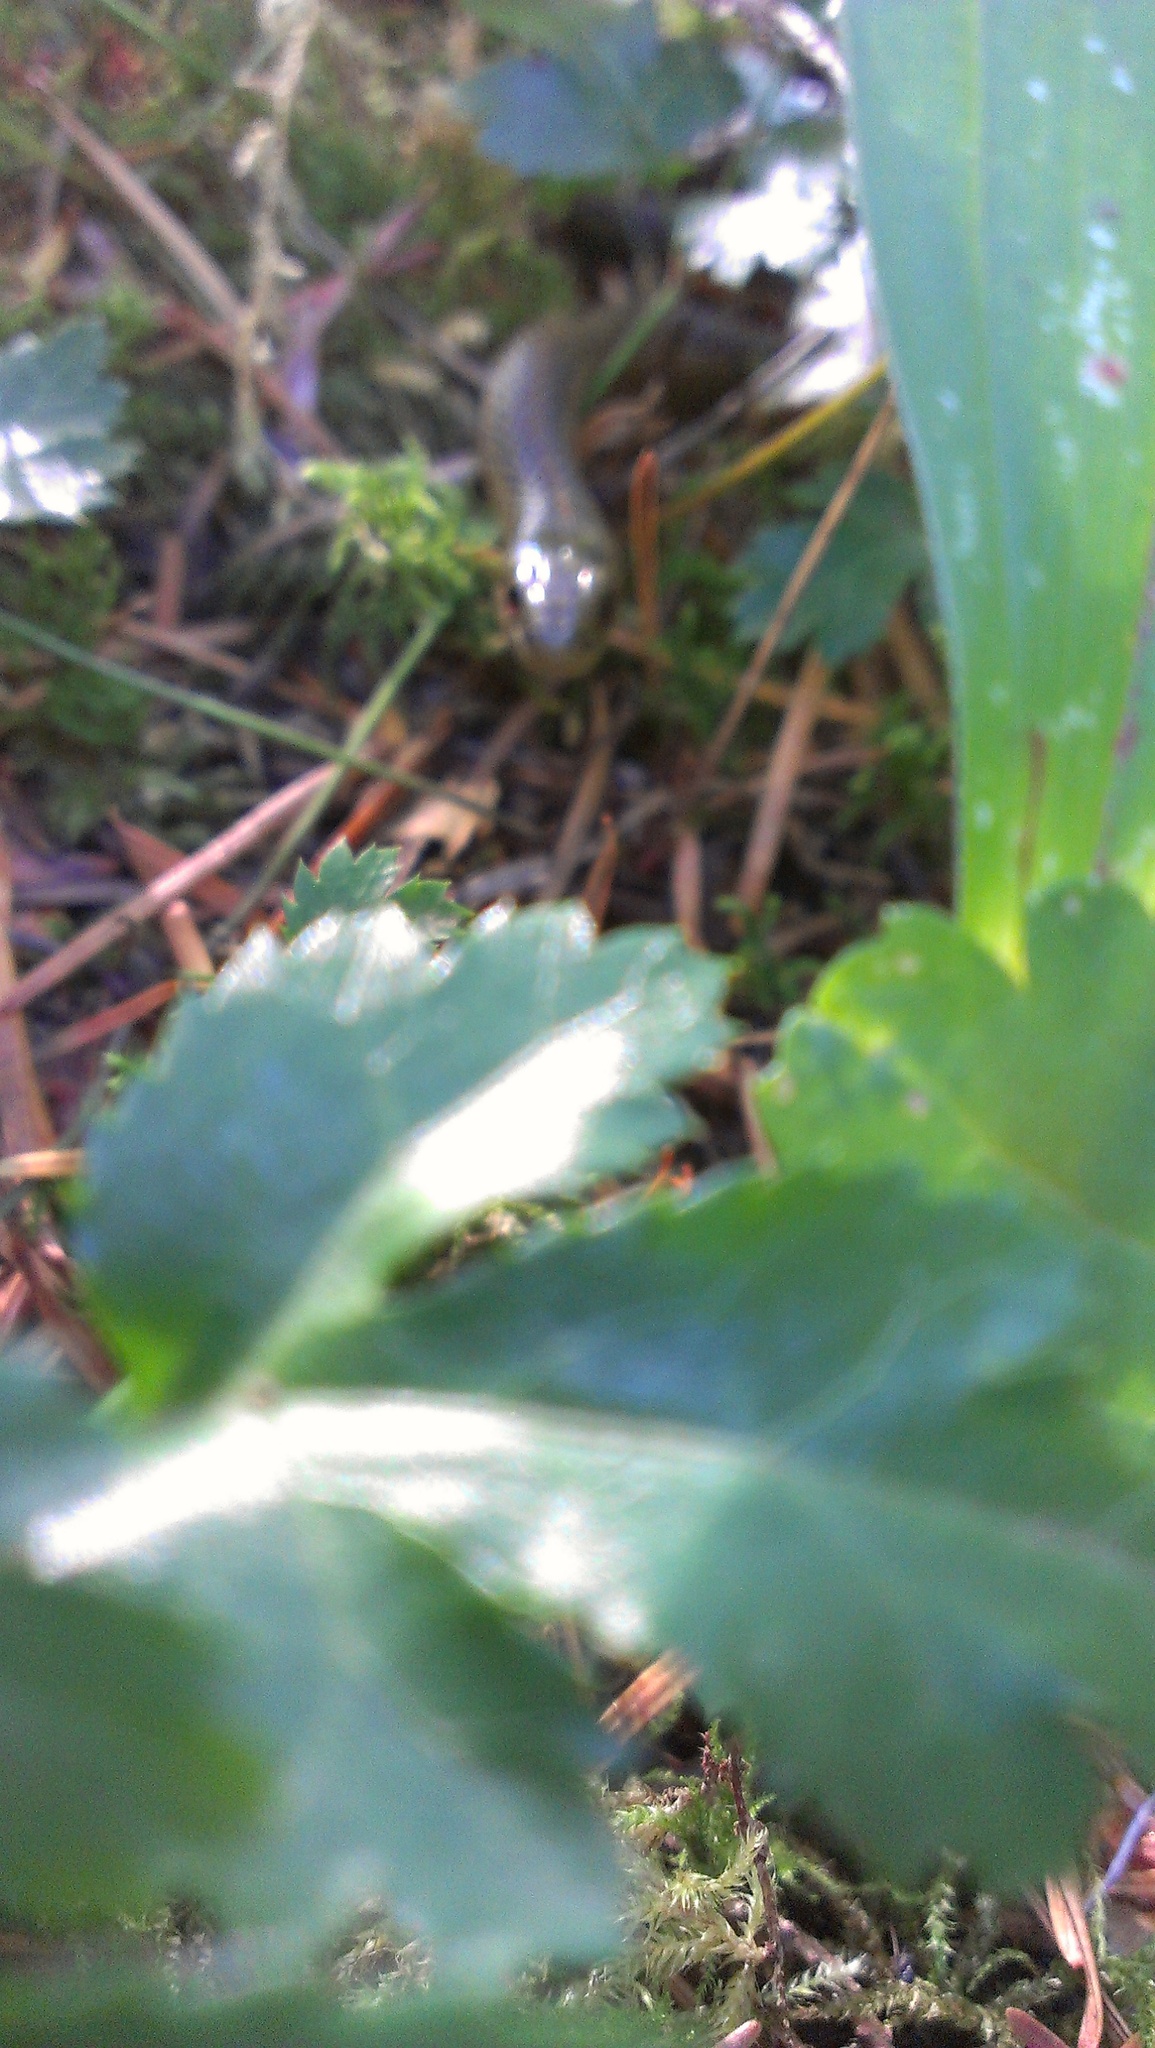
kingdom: Animalia
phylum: Chordata
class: Squamata
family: Colubridae
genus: Thamnophis
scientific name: Thamnophis ordinoides
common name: Northwestern garter snake
